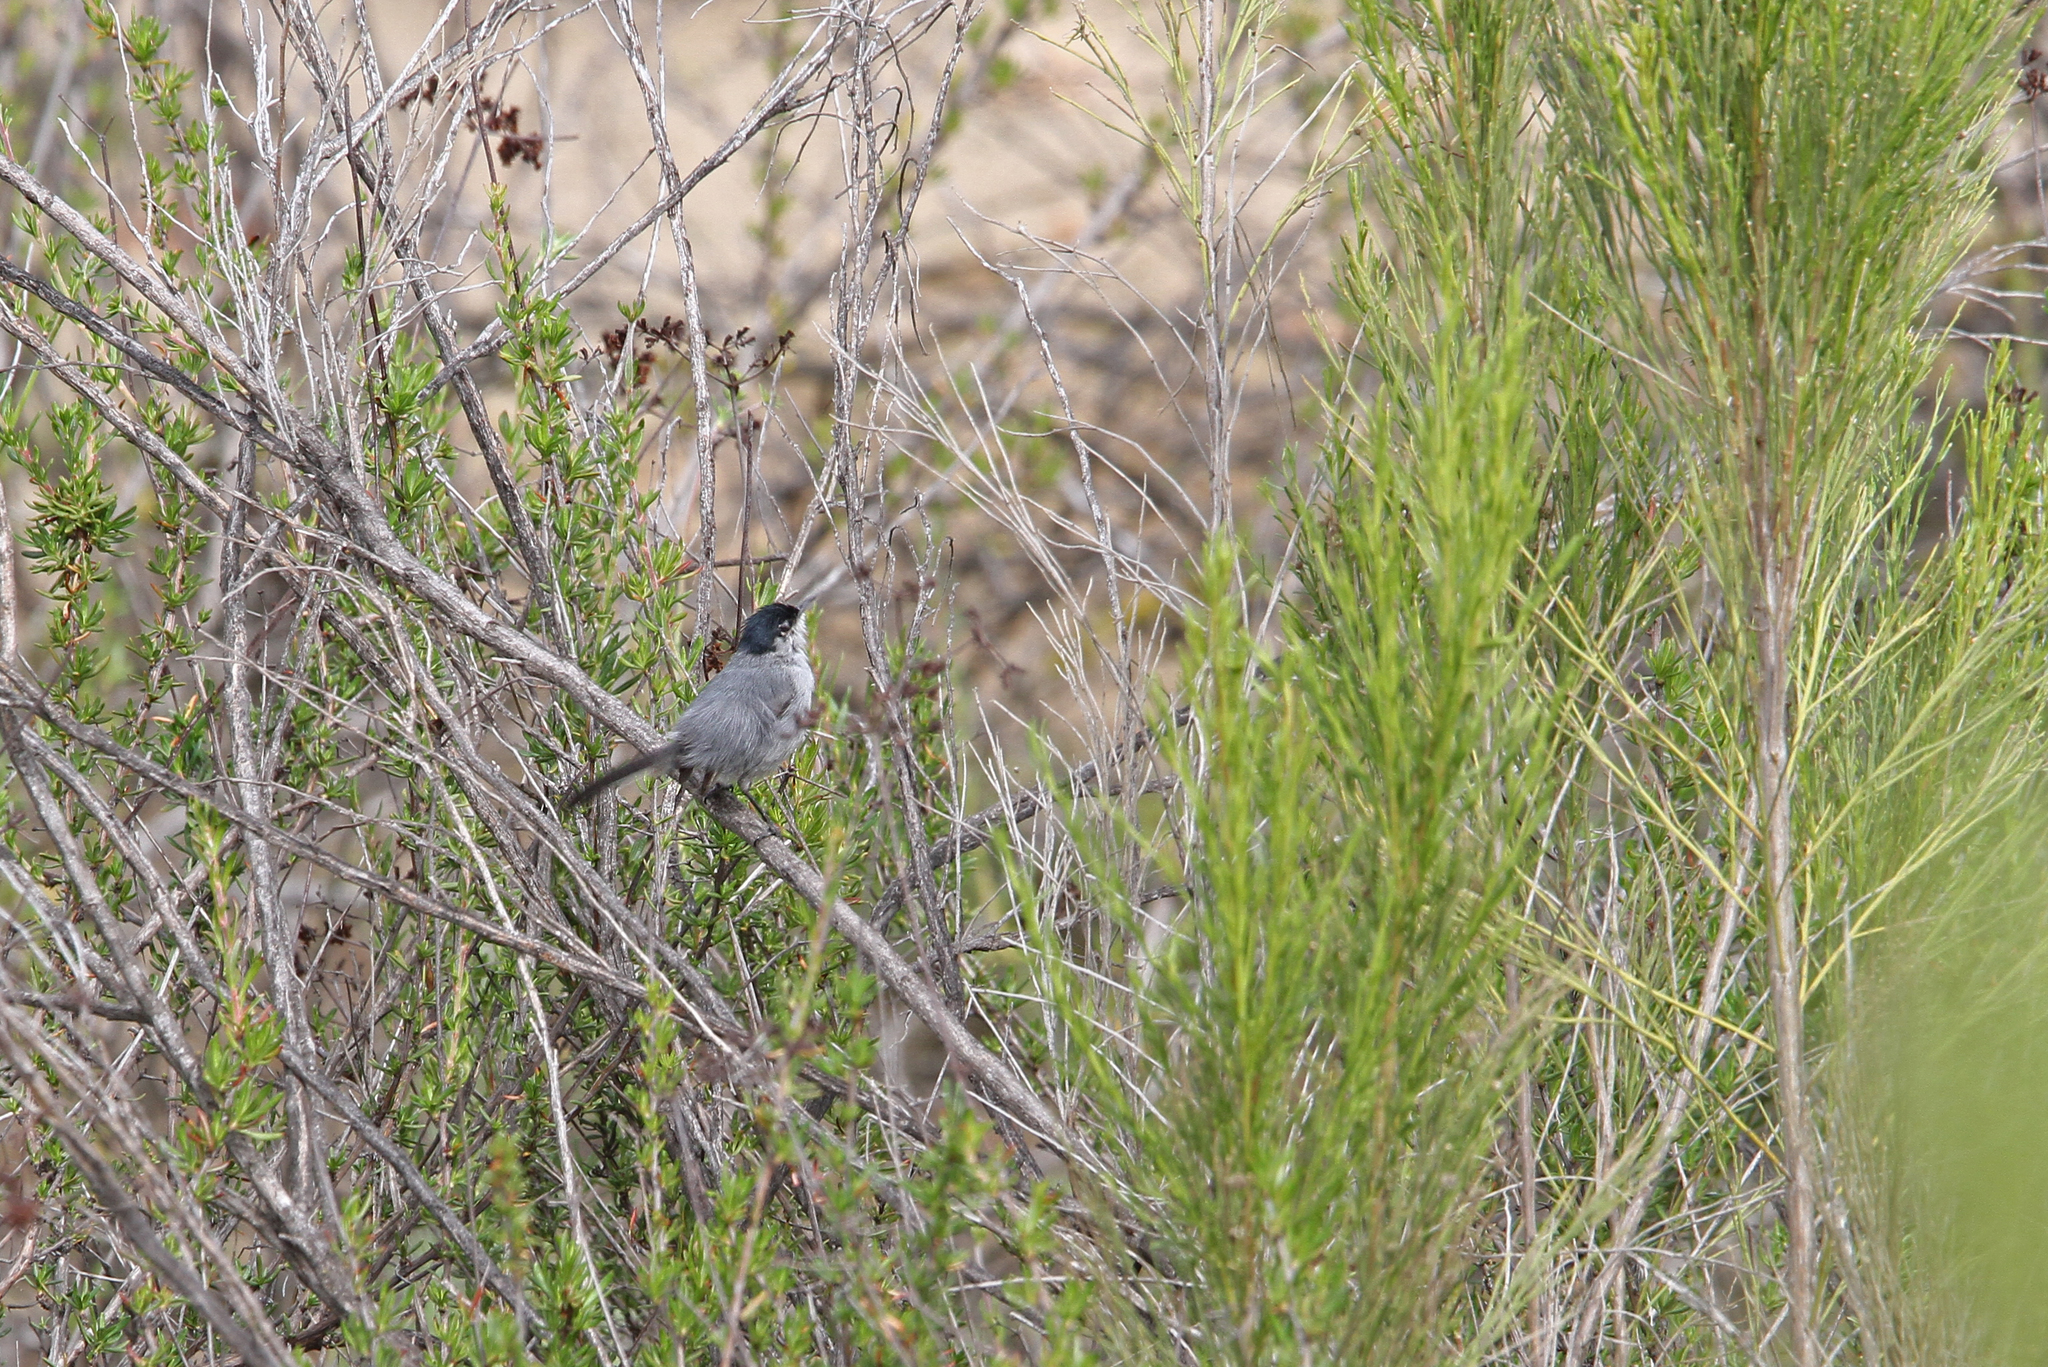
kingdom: Animalia
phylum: Chordata
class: Aves
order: Passeriformes
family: Polioptilidae
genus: Polioptila
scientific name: Polioptila californica
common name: California gnatcatcher
